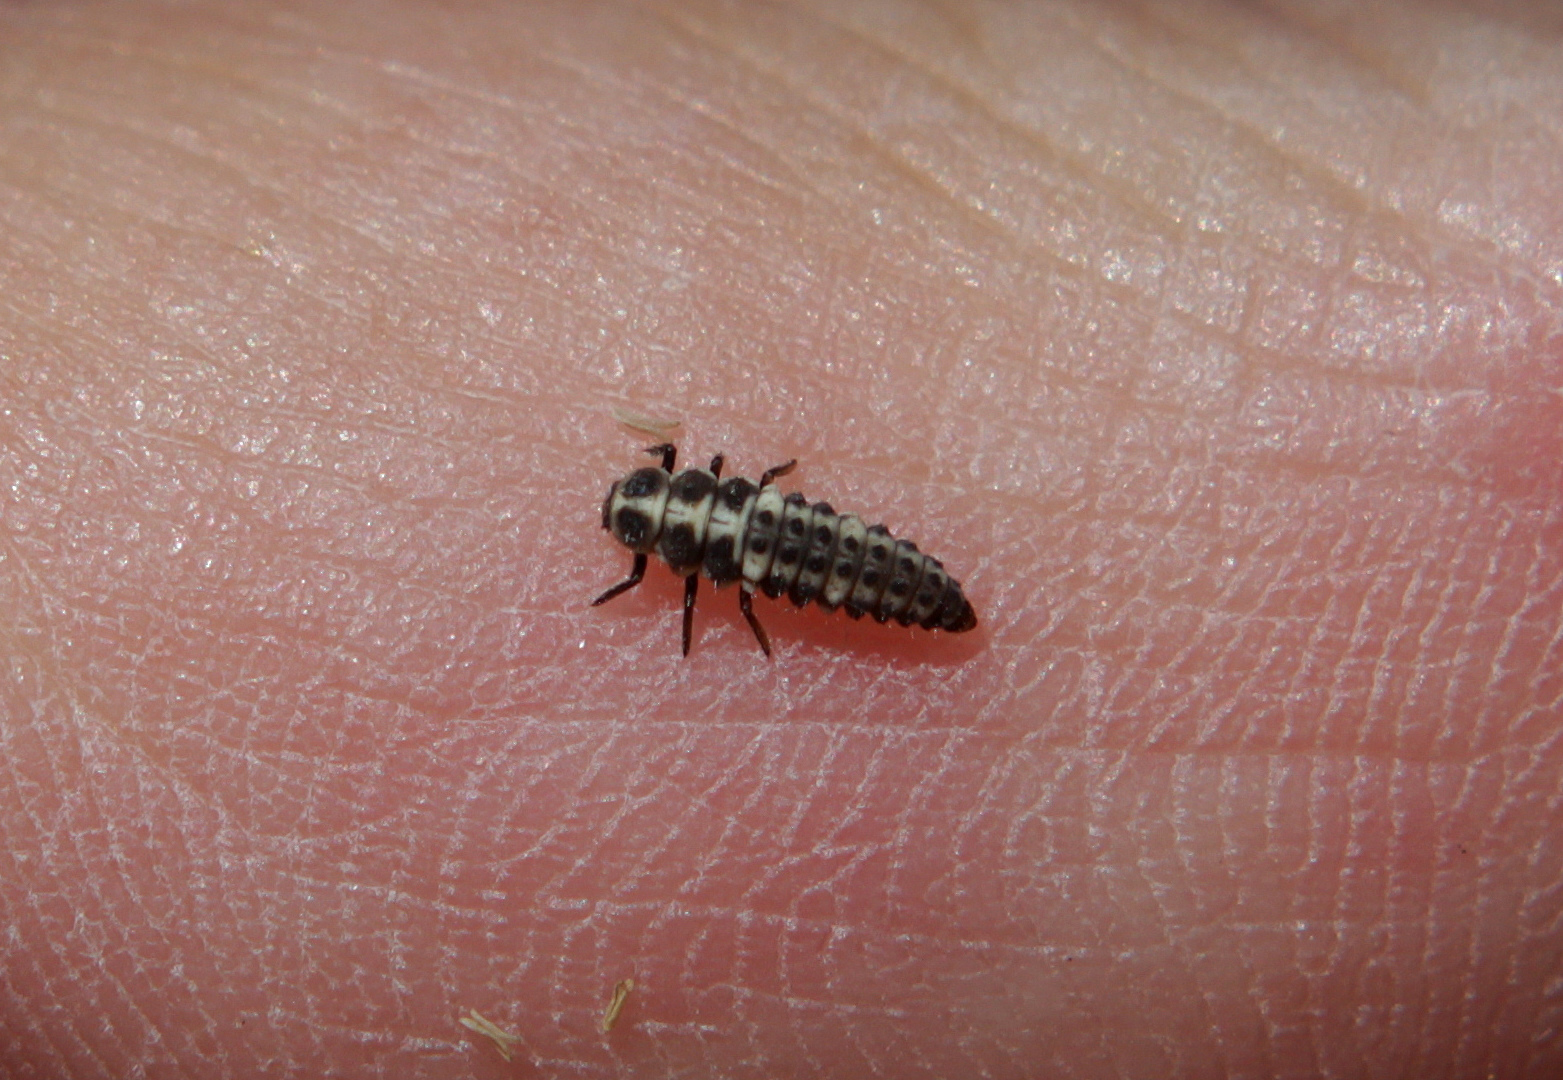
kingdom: Animalia
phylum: Arthropoda
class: Insecta
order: Coleoptera
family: Coccinellidae
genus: Coccinula
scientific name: Coccinula quatuordecimpustulata
